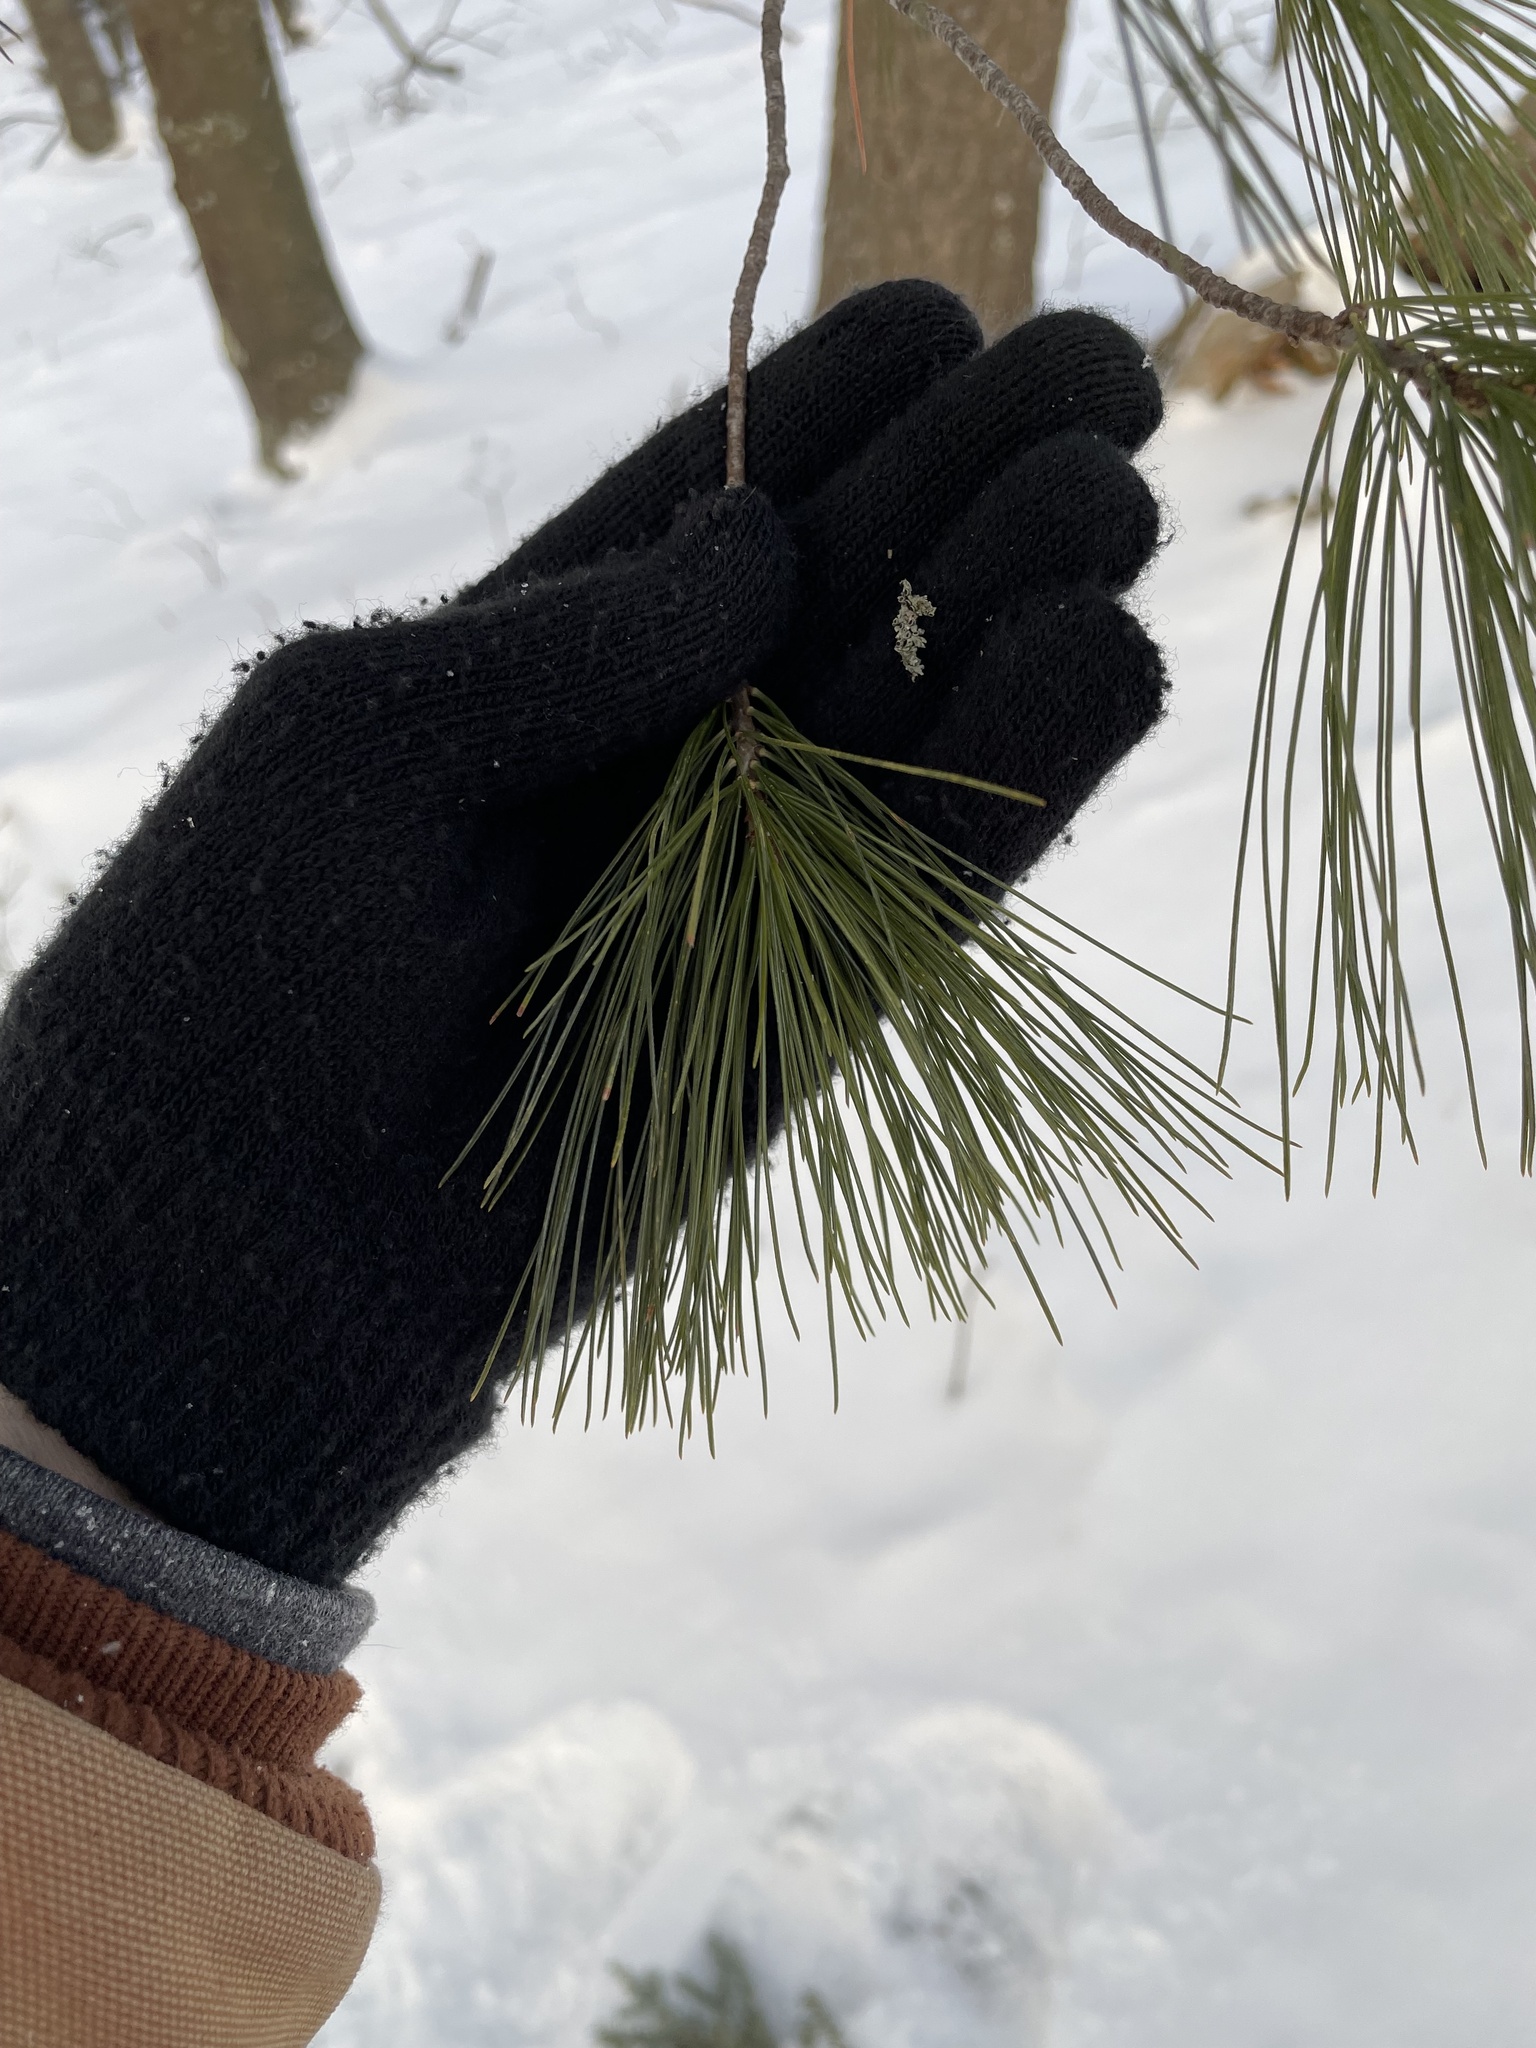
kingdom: Plantae
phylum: Tracheophyta
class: Pinopsida
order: Pinales
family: Pinaceae
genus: Pinus
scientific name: Pinus strobus
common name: Weymouth pine
